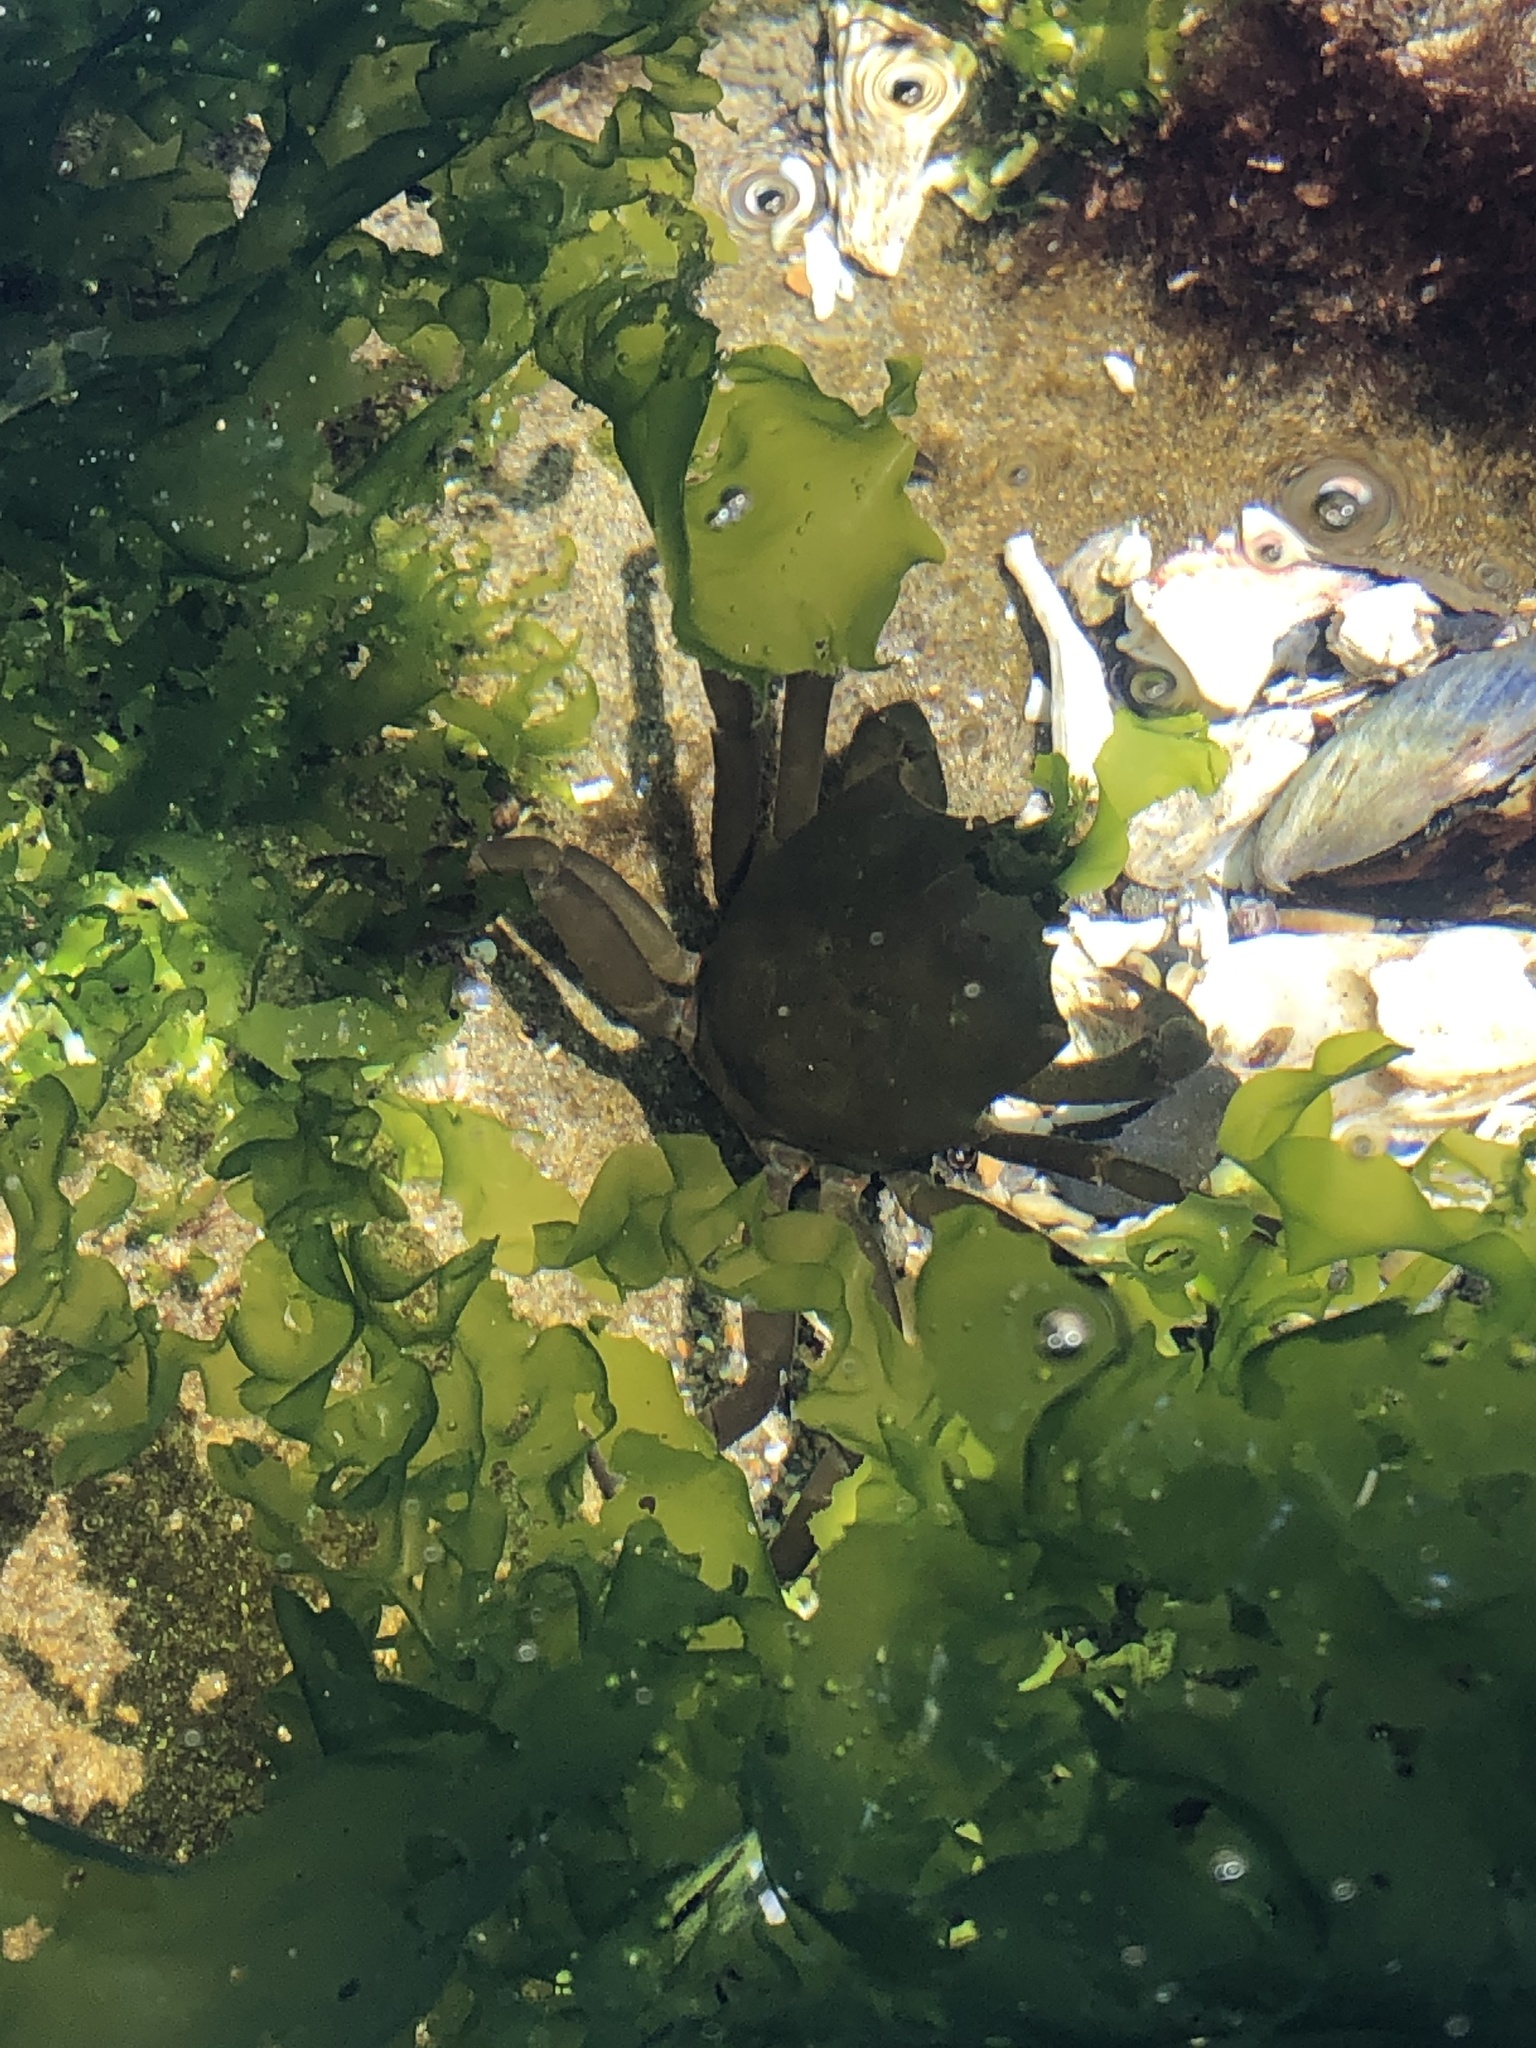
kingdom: Animalia
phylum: Arthropoda
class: Malacostraca
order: Decapoda
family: Epialtidae
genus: Pugettia
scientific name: Pugettia producta
